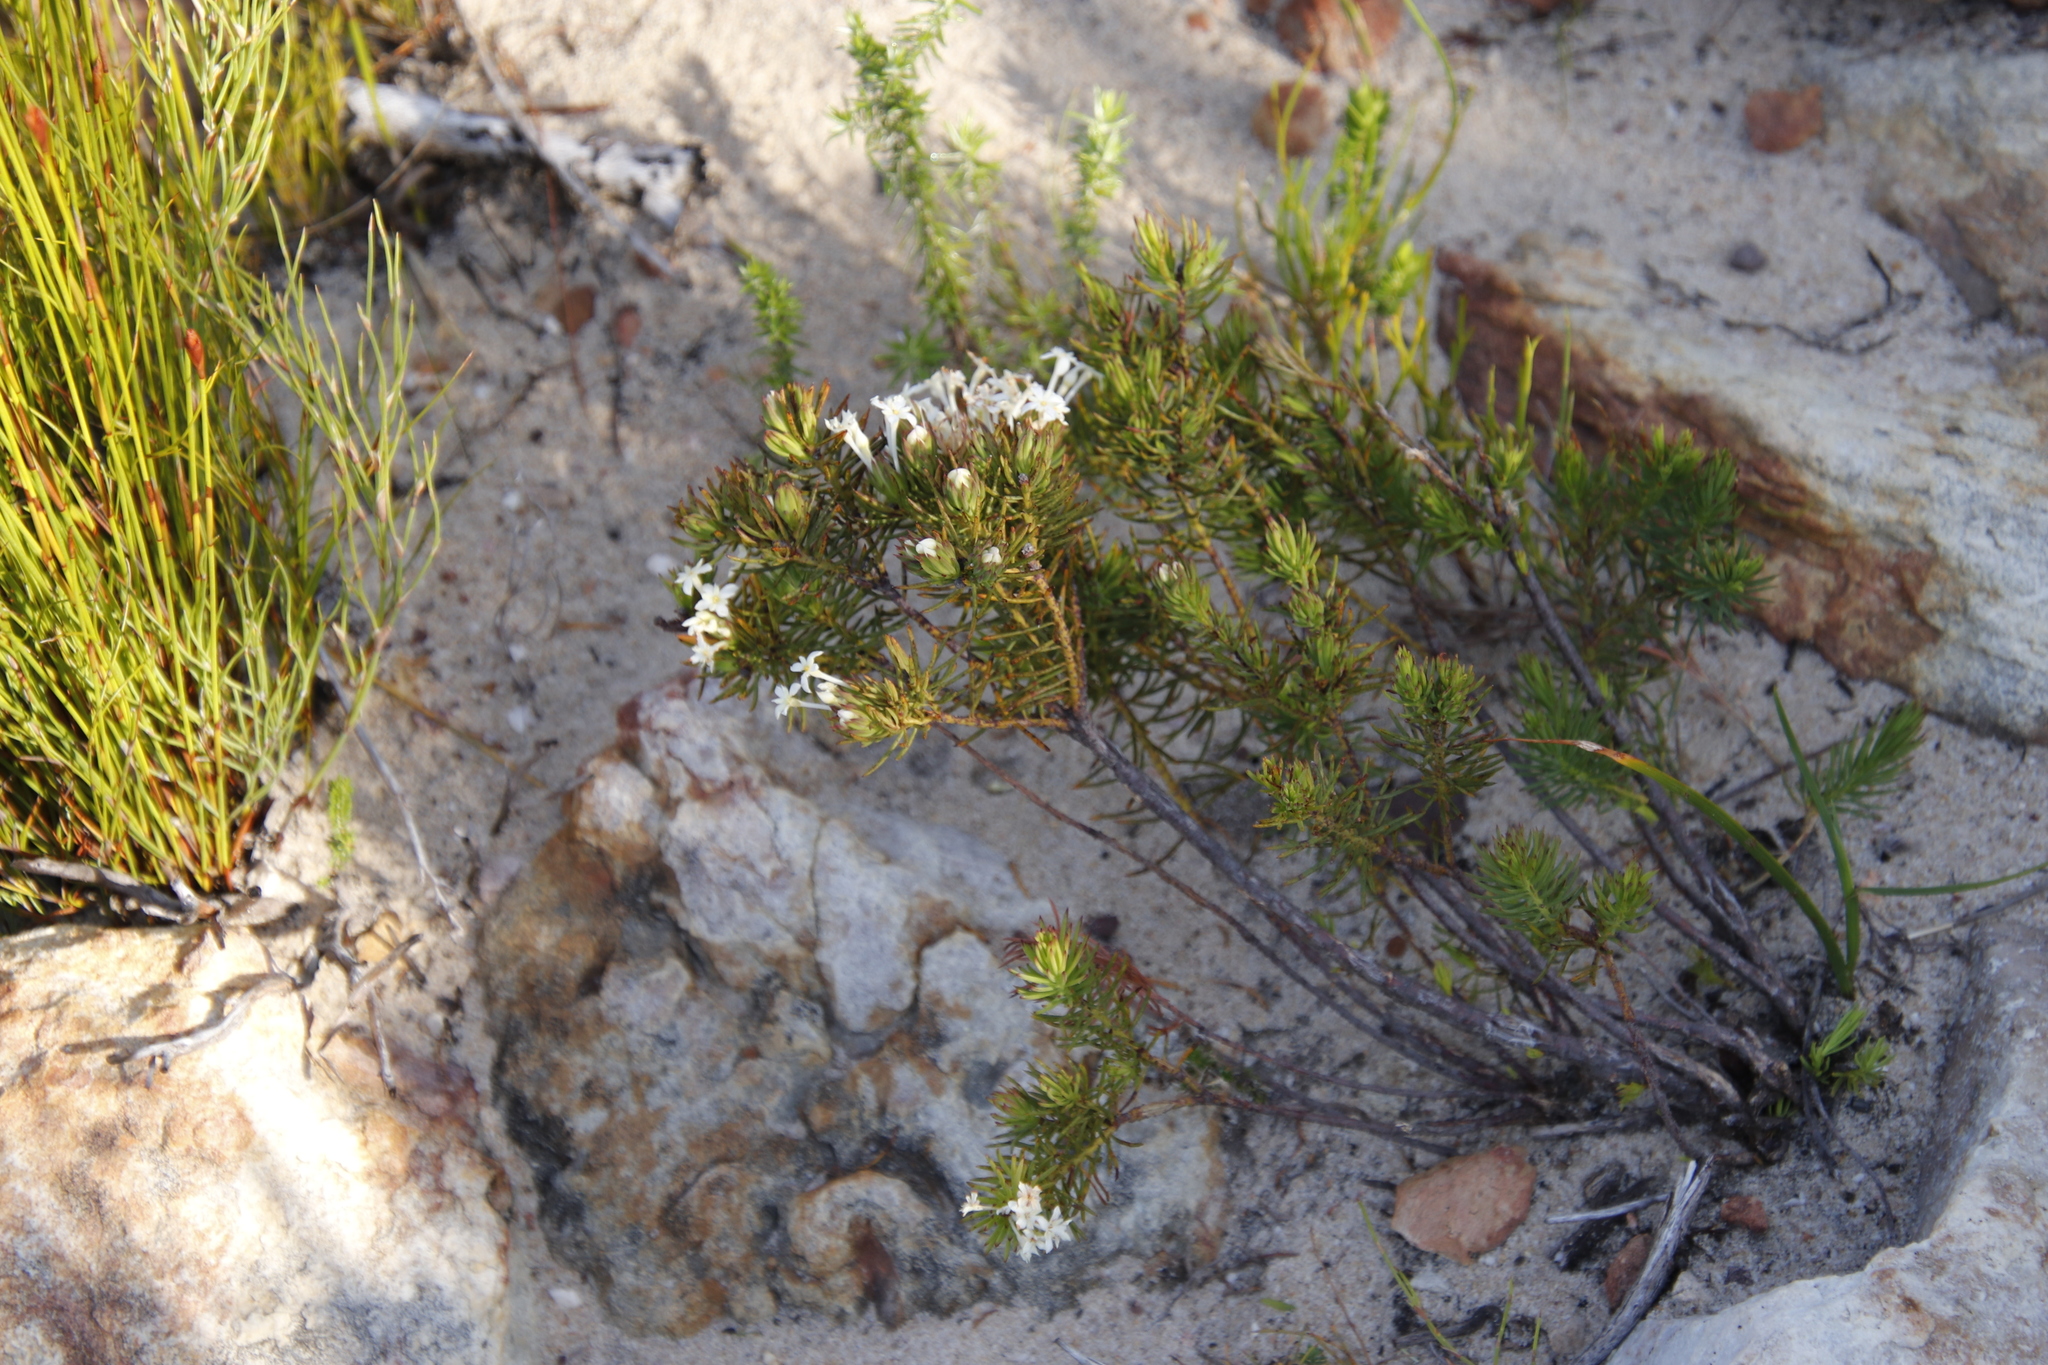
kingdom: Plantae
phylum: Tracheophyta
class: Magnoliopsida
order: Malvales
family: Thymelaeaceae
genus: Gnidia
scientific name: Gnidia pinifolia
